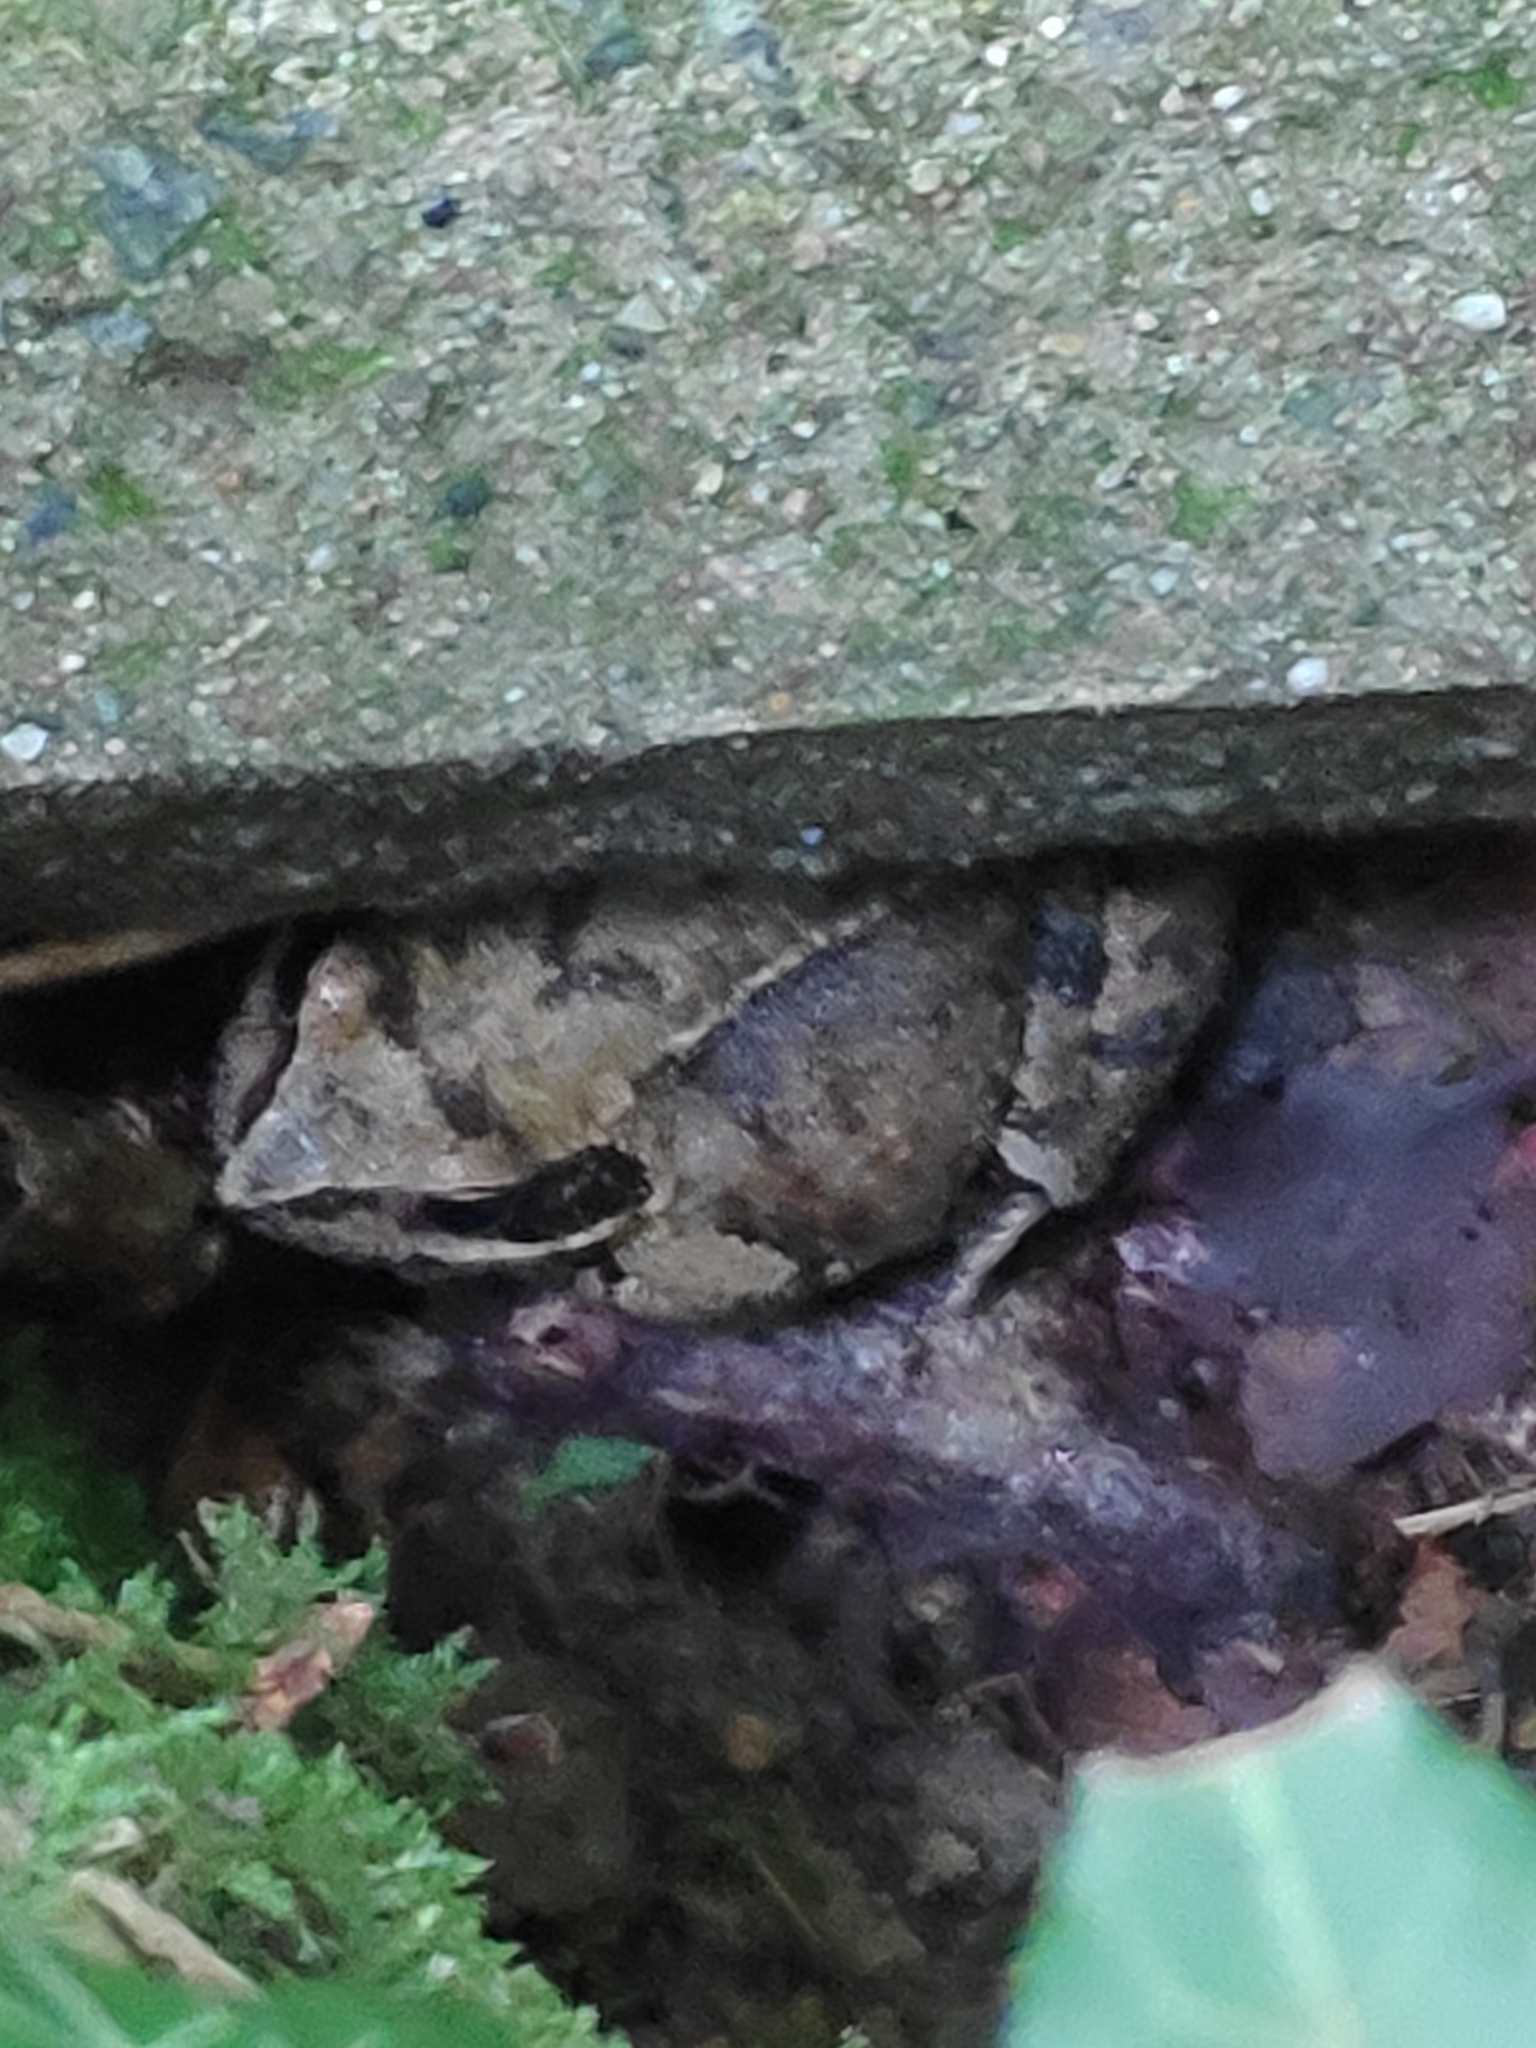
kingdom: Animalia
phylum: Chordata
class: Amphibia
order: Anura
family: Ranidae
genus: Rana
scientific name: Rana temporaria
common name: Common frog
